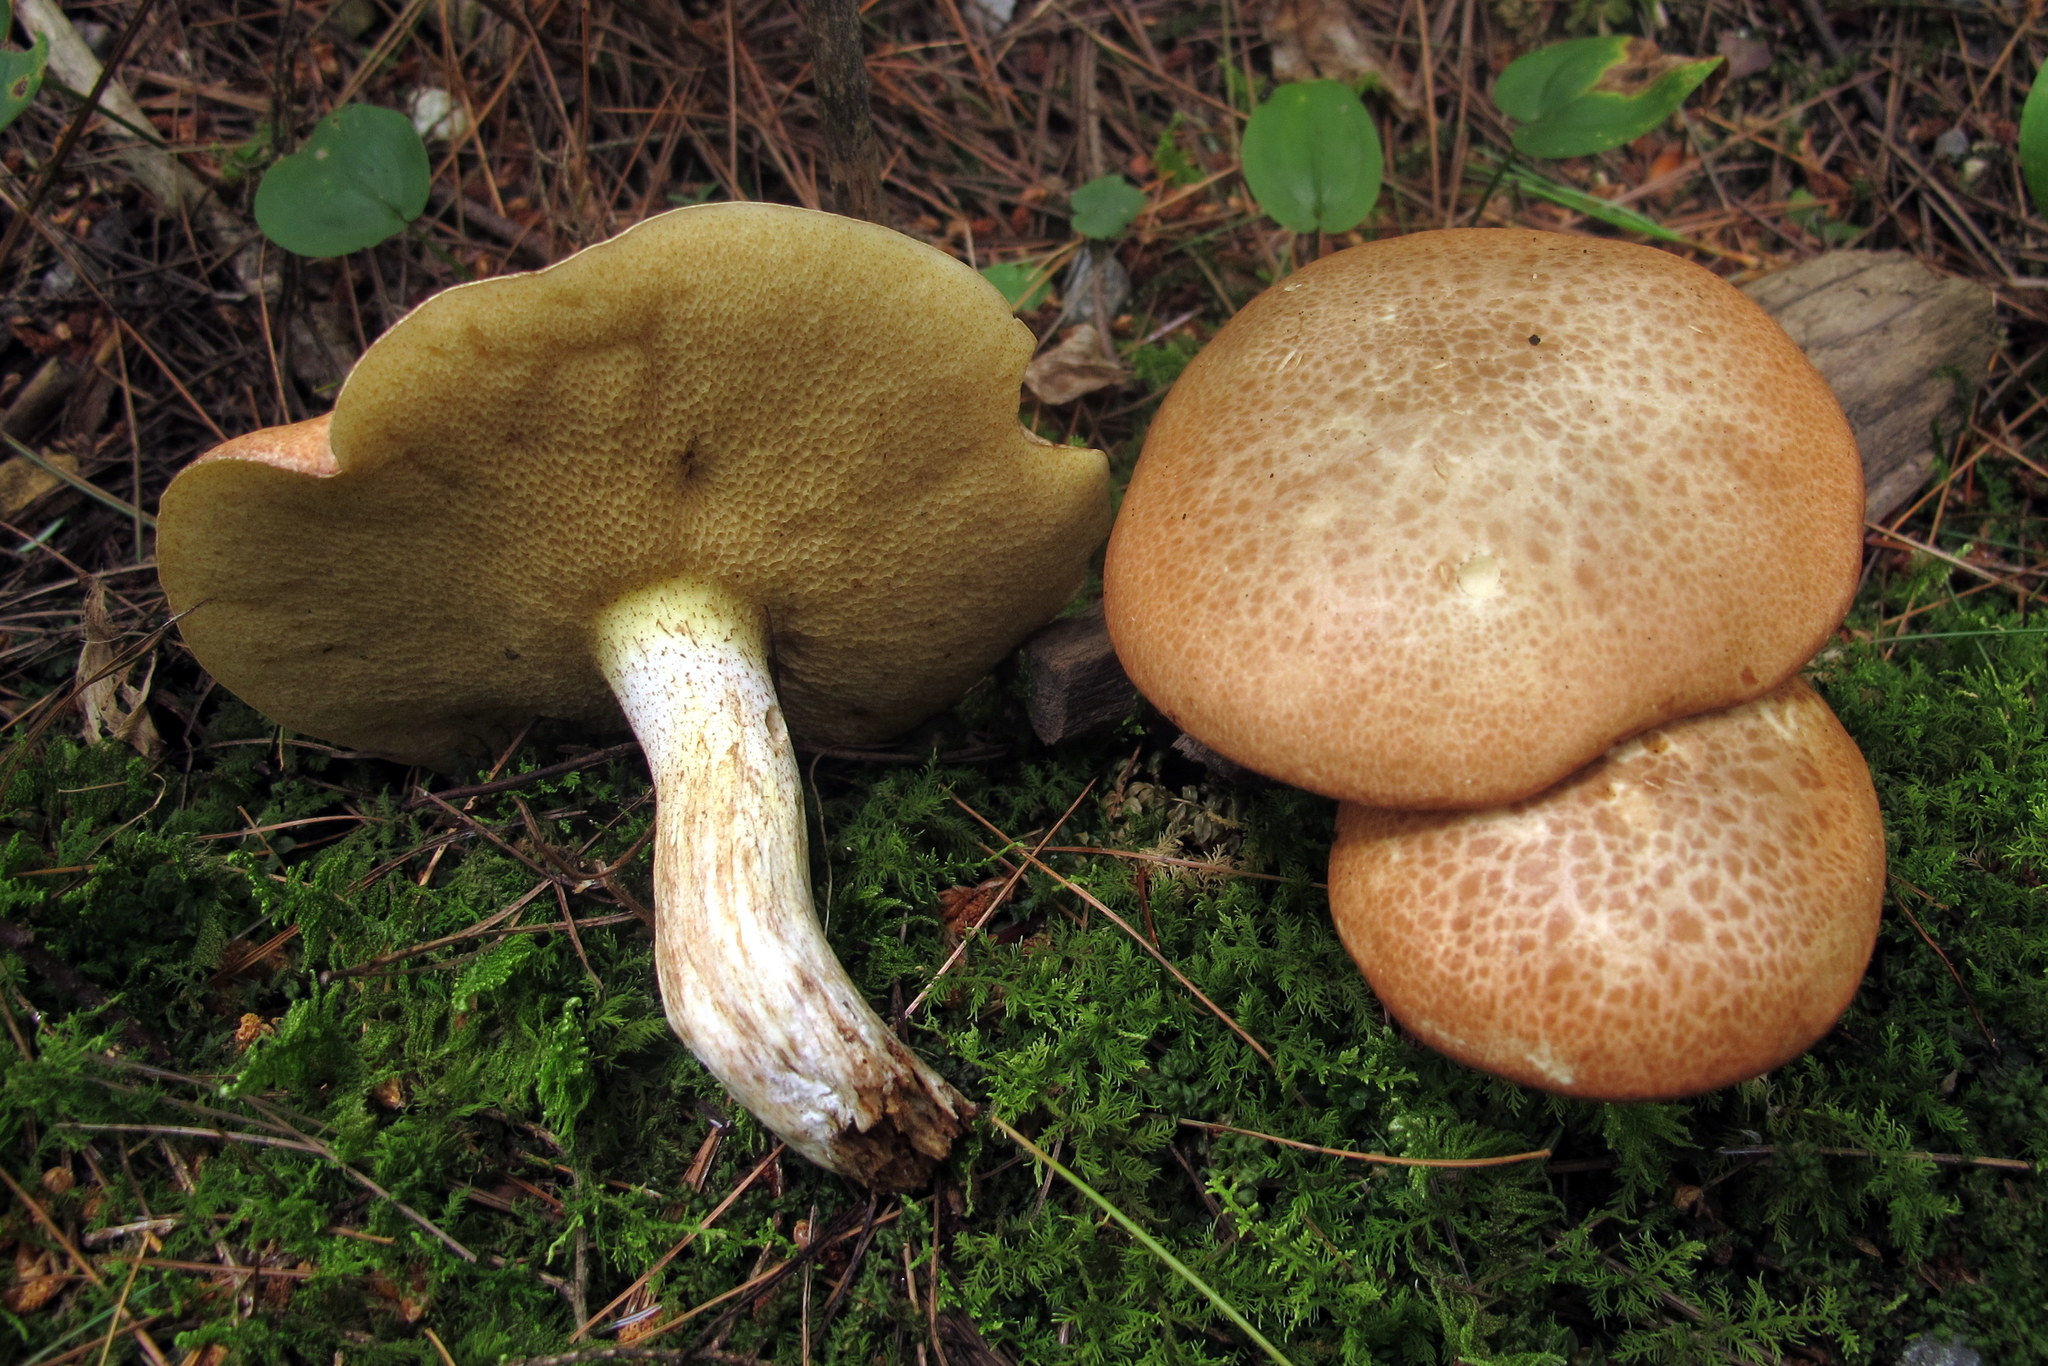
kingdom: Fungi
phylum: Basidiomycota
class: Agaricomycetes
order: Boletales
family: Suillaceae
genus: Suillus
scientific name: Suillus granulatus
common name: Weeping bolete
